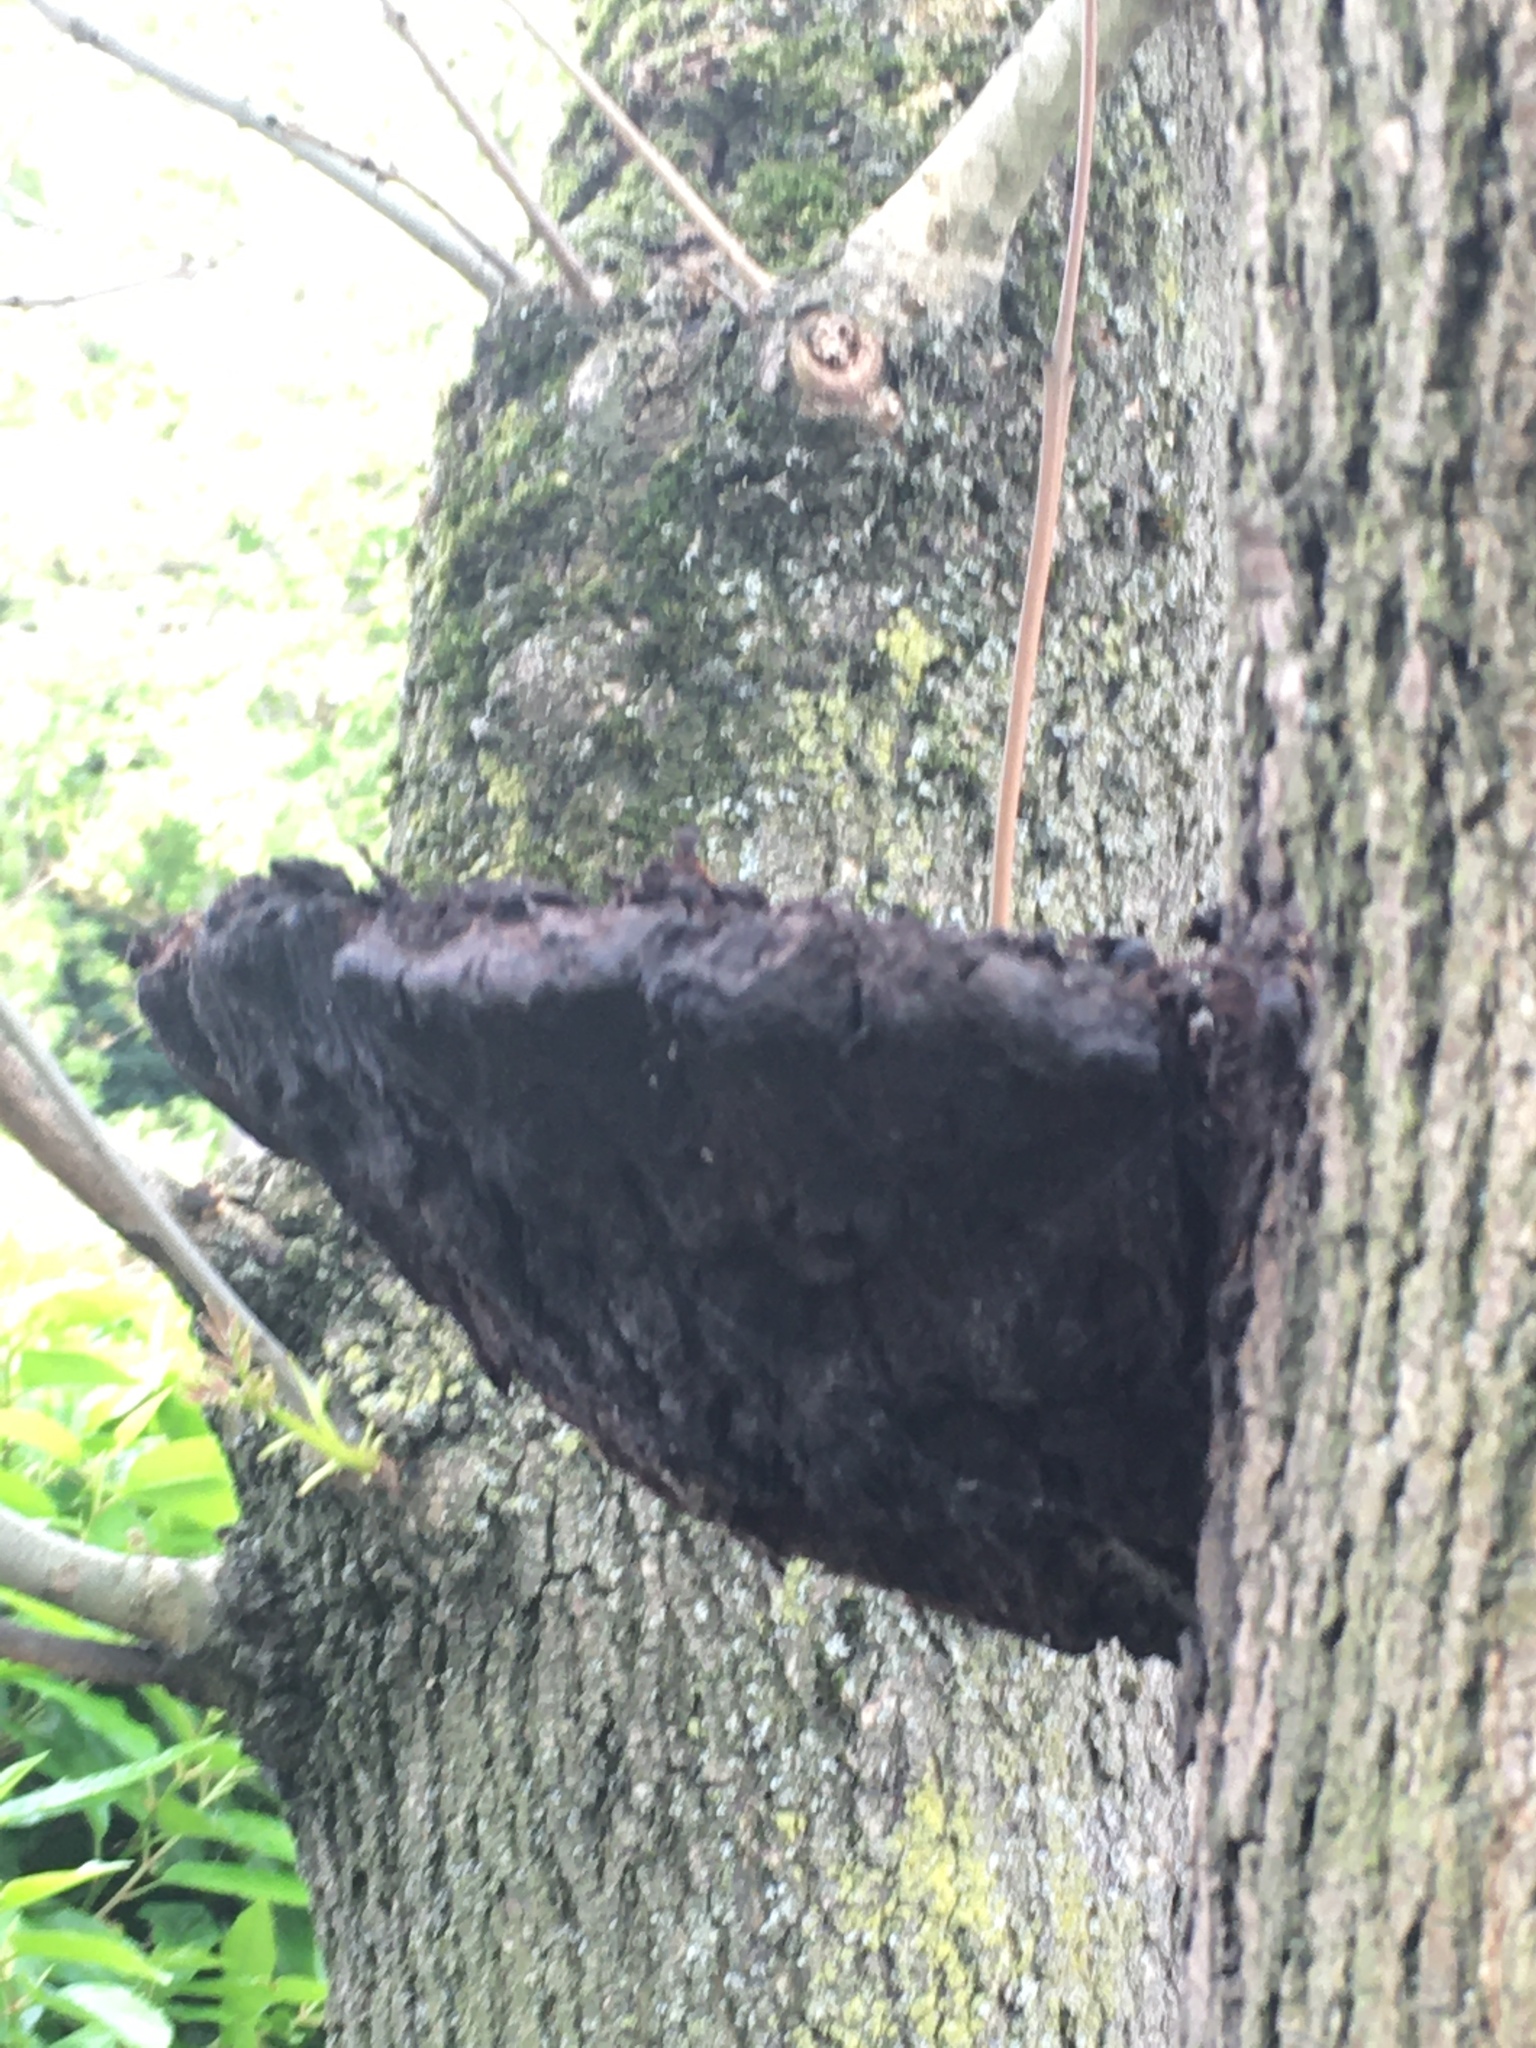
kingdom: Fungi
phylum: Basidiomycota
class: Agaricomycetes
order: Hymenochaetales
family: Hymenochaetaceae
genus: Inonotus
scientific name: Inonotus hispidus
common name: Shaggy bracket
